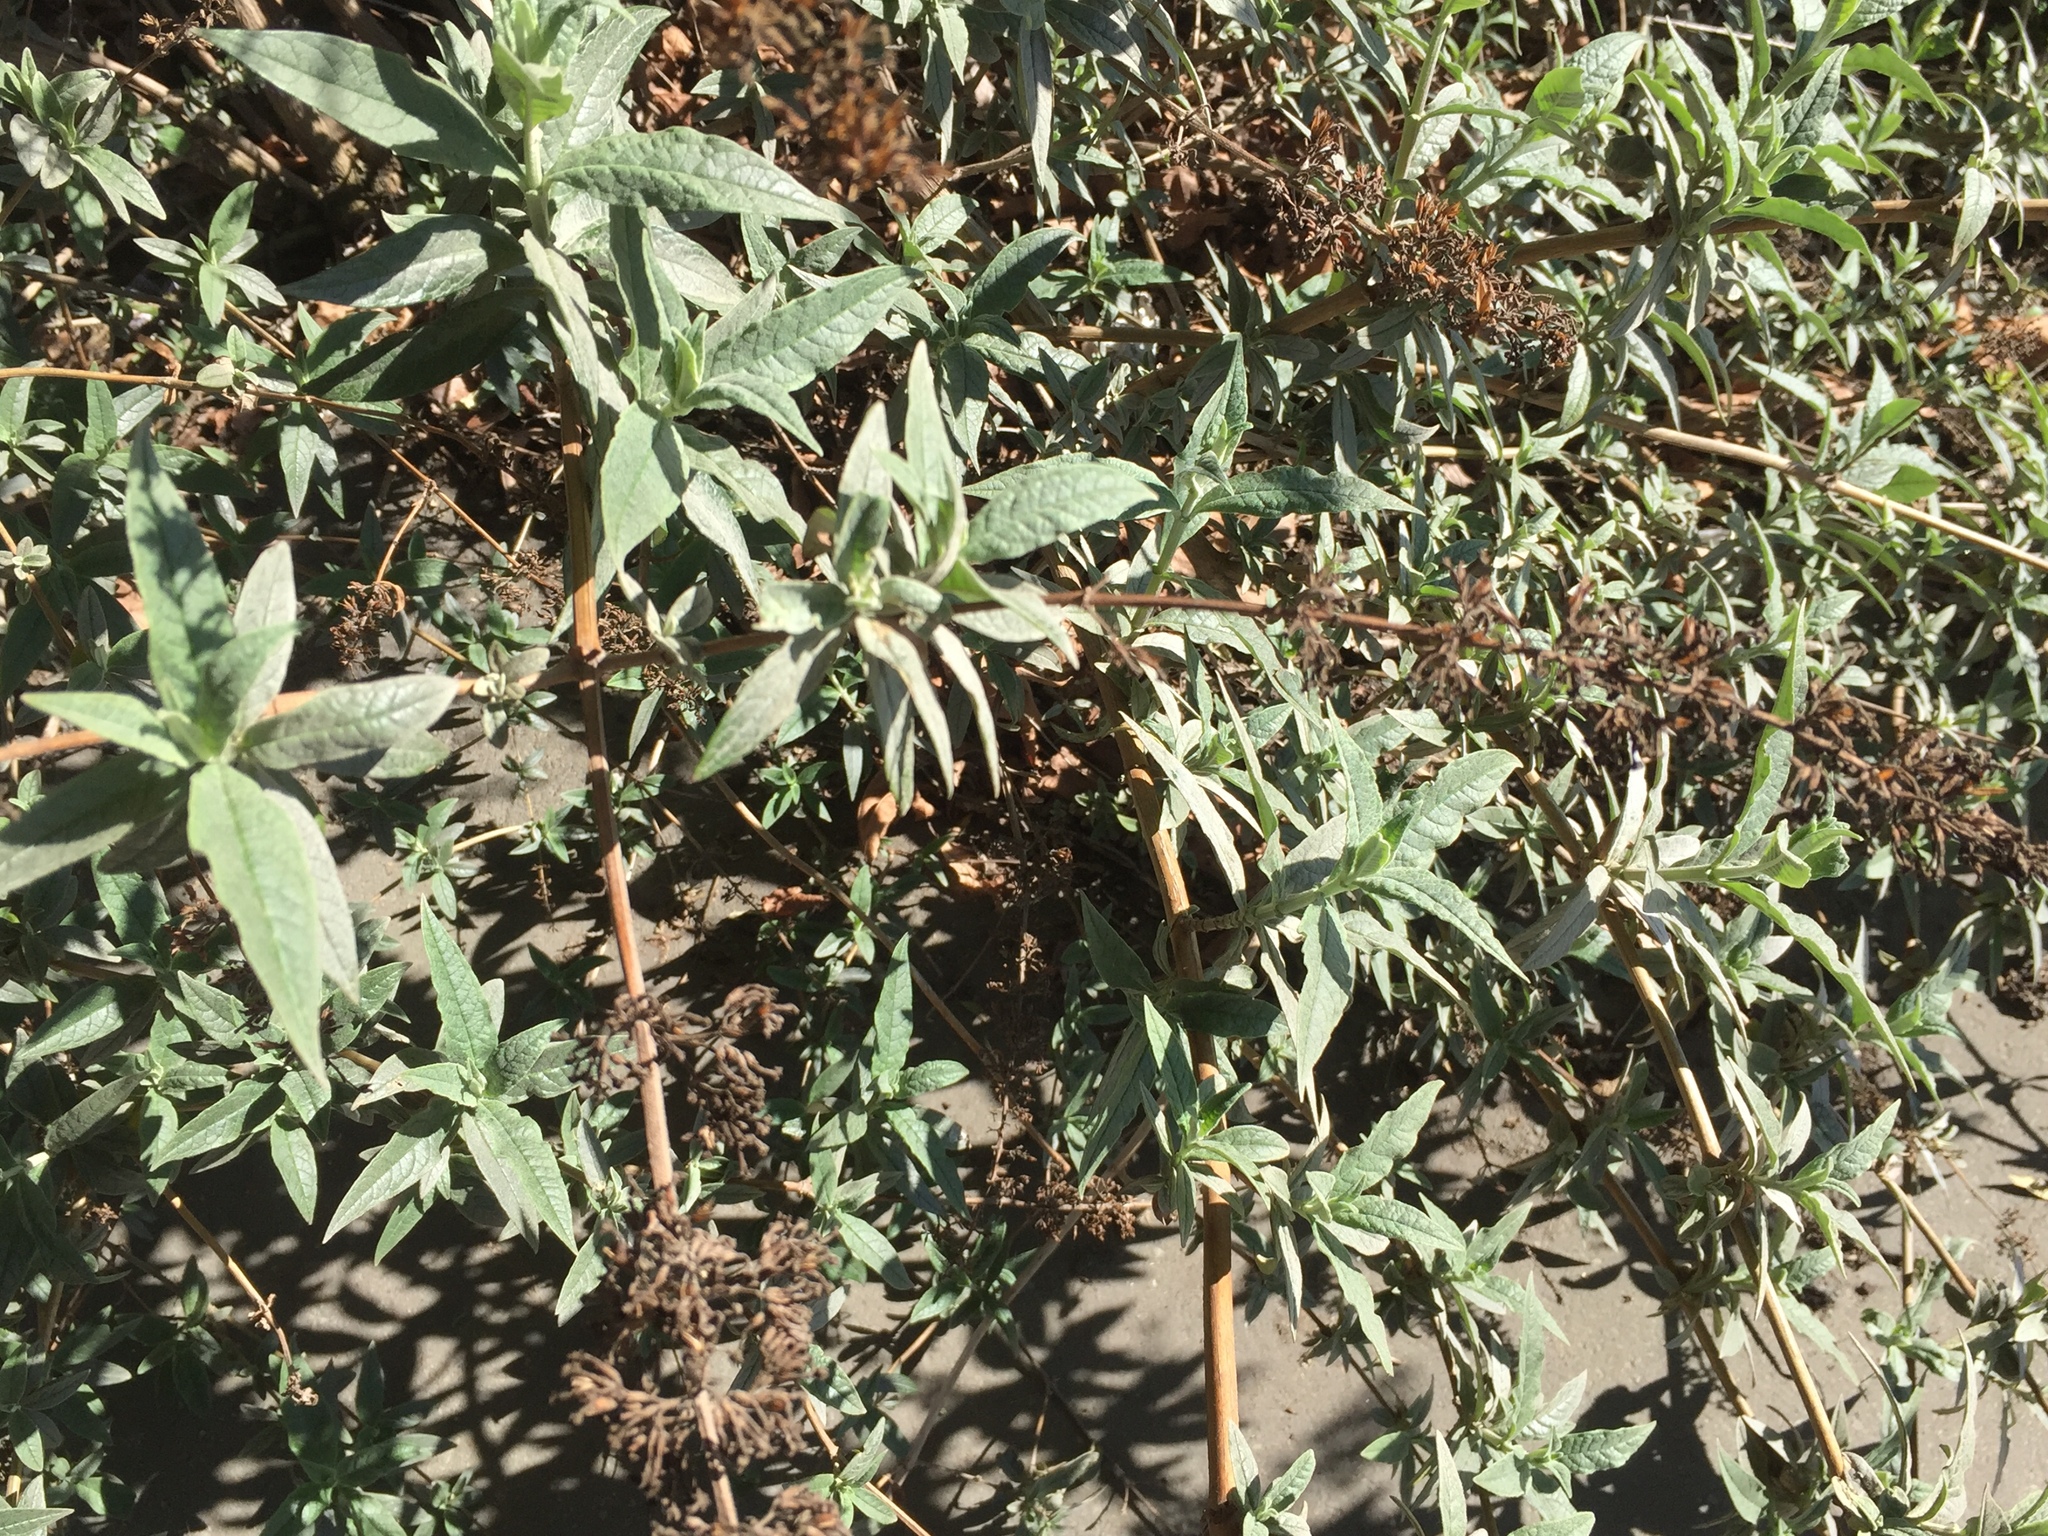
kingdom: Plantae
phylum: Tracheophyta
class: Magnoliopsida
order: Lamiales
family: Scrophulariaceae
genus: Buddleja
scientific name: Buddleja davidii
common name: Butterfly-bush
